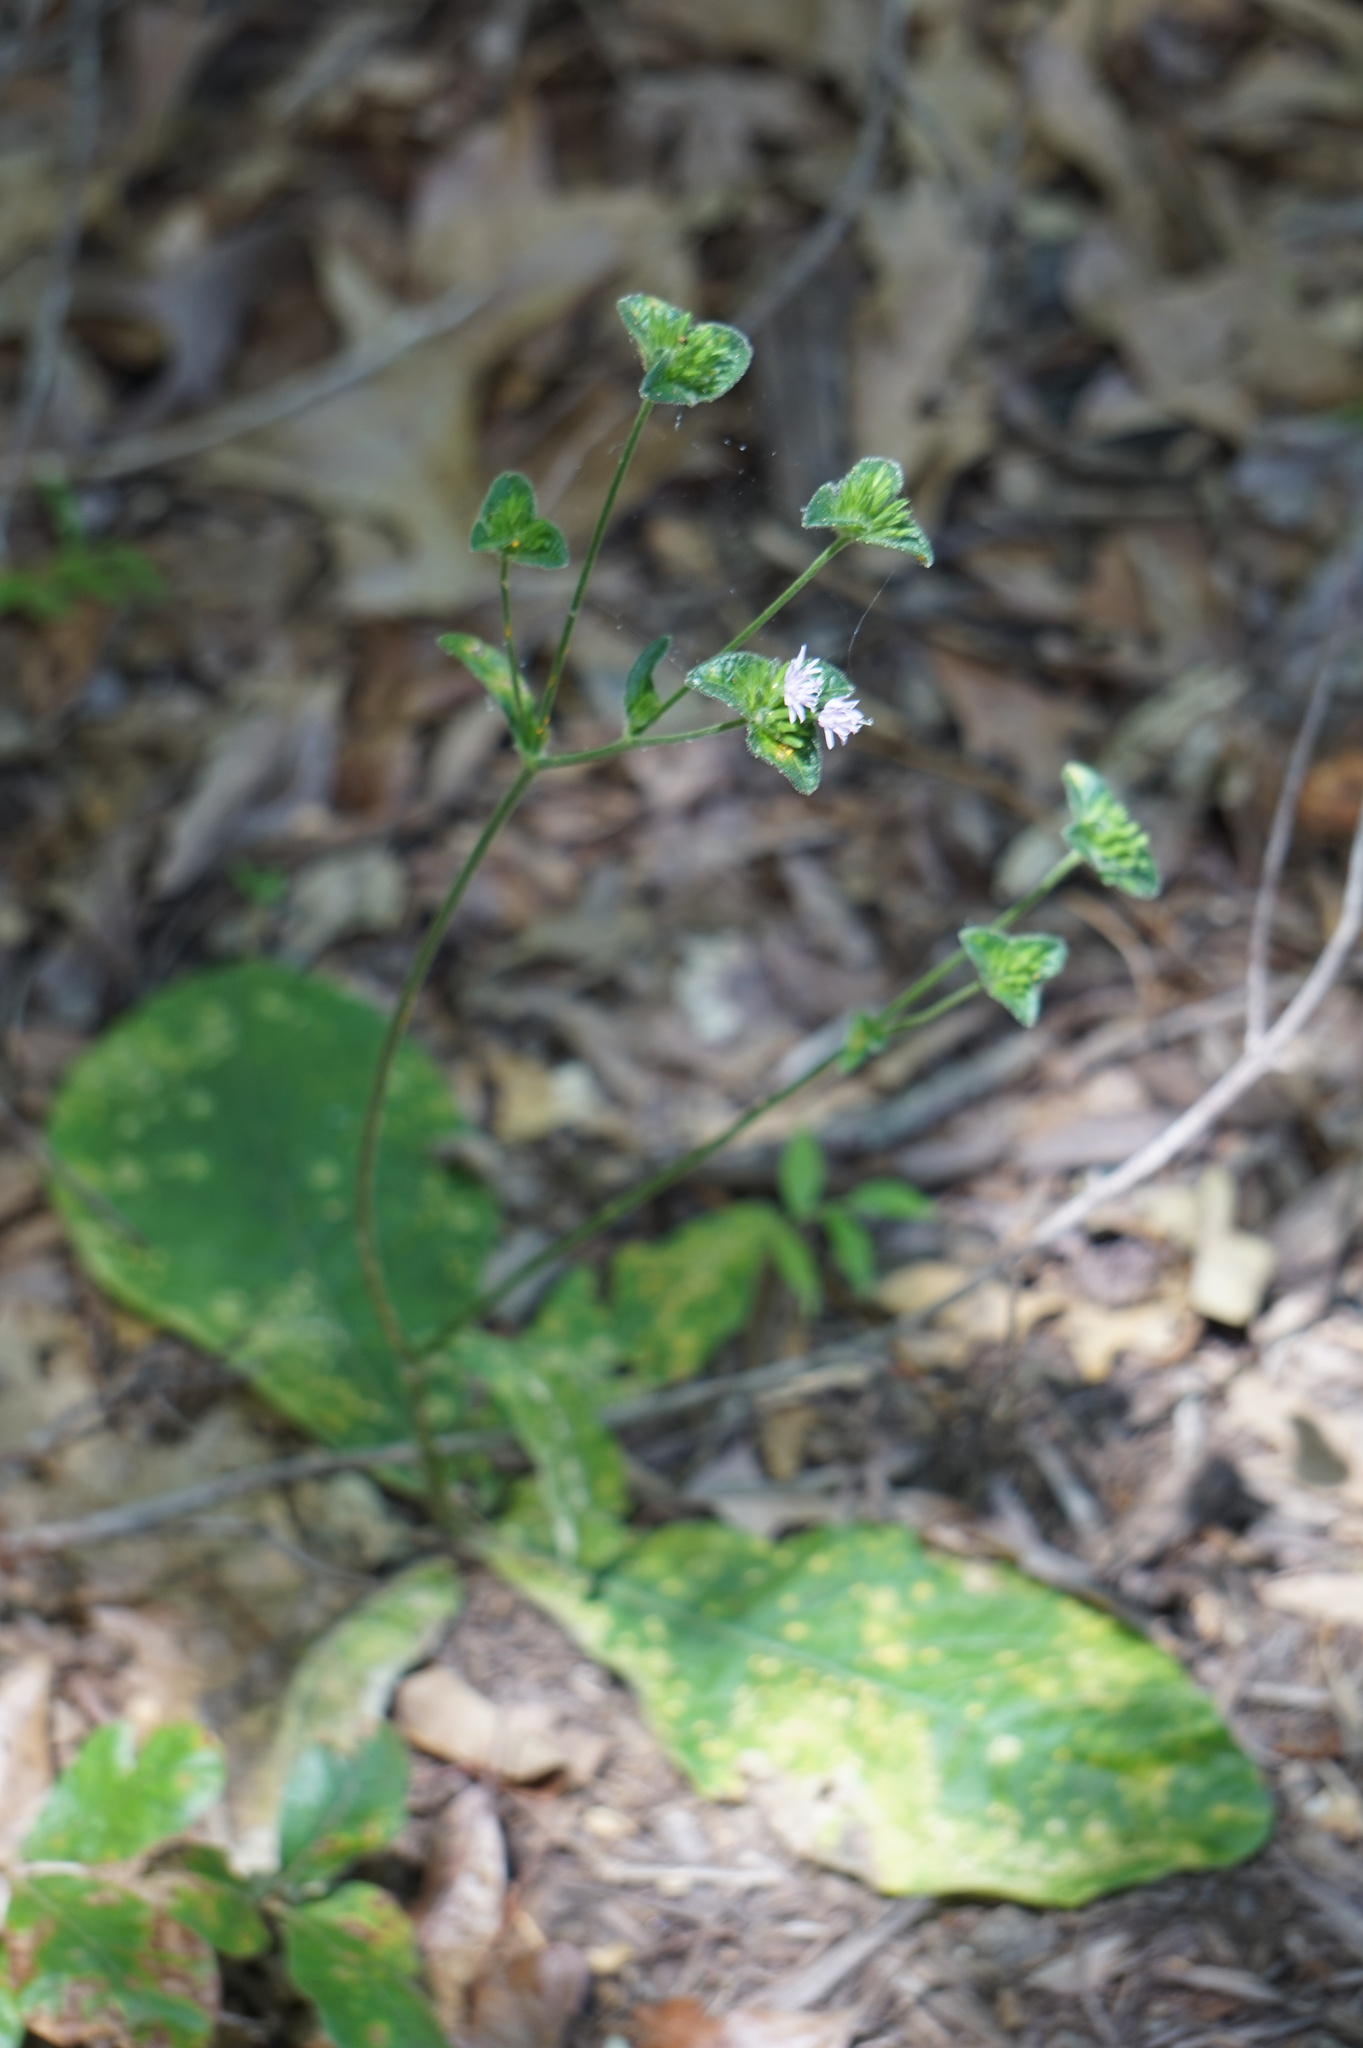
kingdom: Plantae
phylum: Tracheophyta
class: Magnoliopsida
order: Asterales
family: Asteraceae
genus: Elephantopus
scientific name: Elephantopus tomentosus
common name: Tobacco-weed
